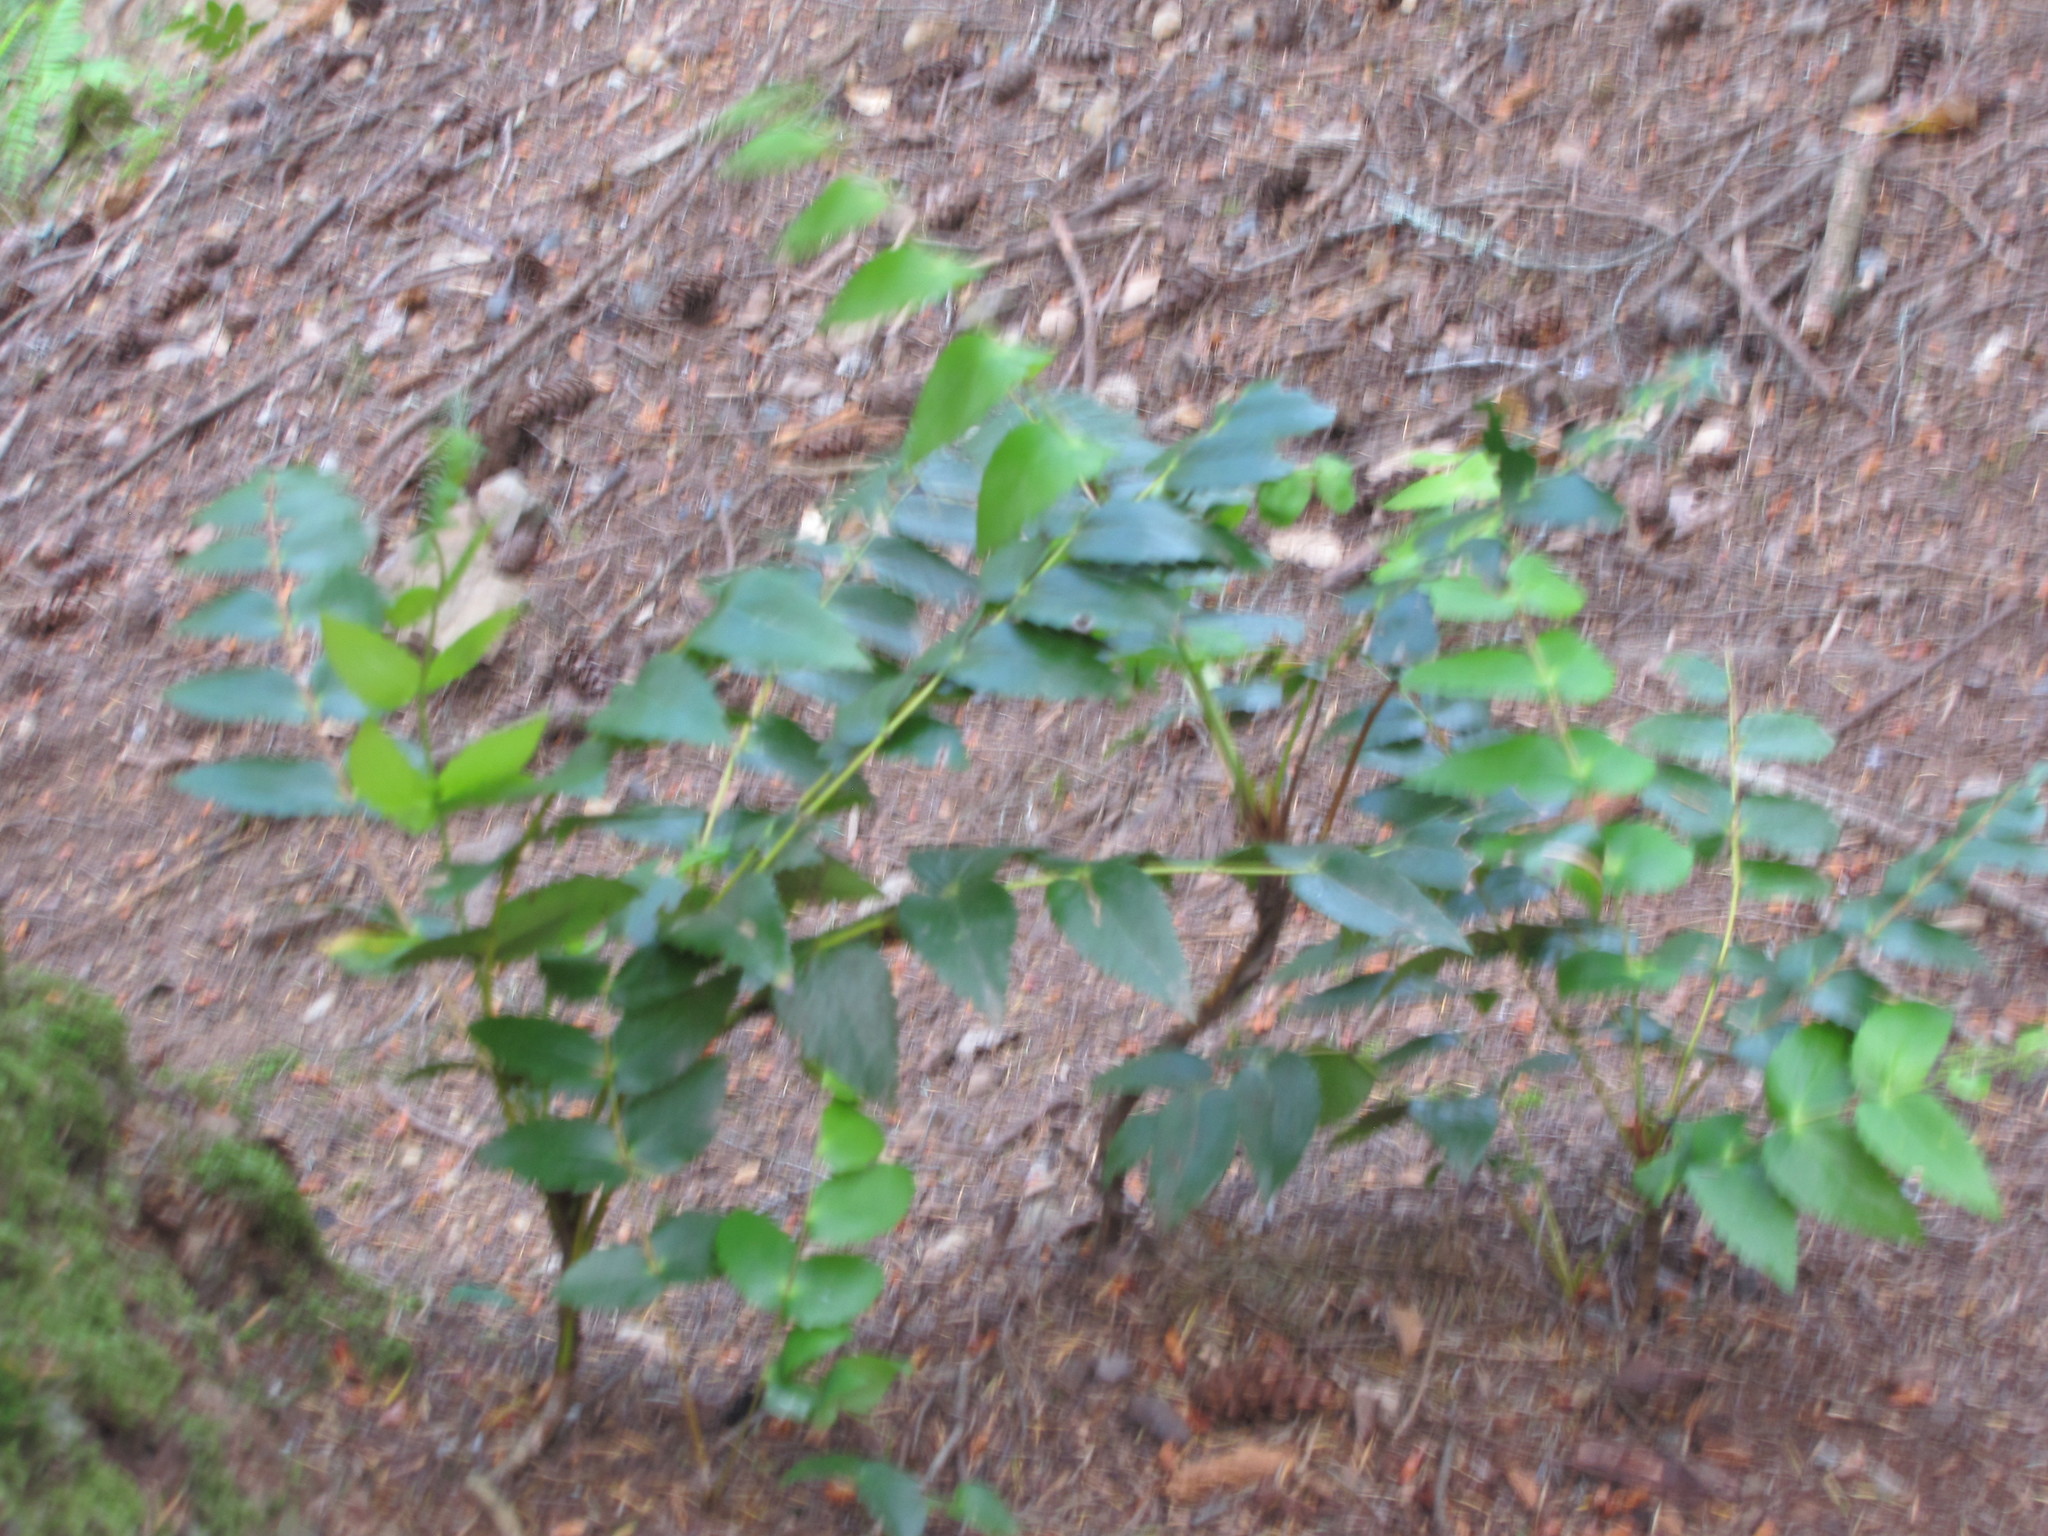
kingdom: Plantae
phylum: Tracheophyta
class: Magnoliopsida
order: Ranunculales
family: Berberidaceae
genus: Mahonia
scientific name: Mahonia nervosa
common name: Cascade oregon-grape
